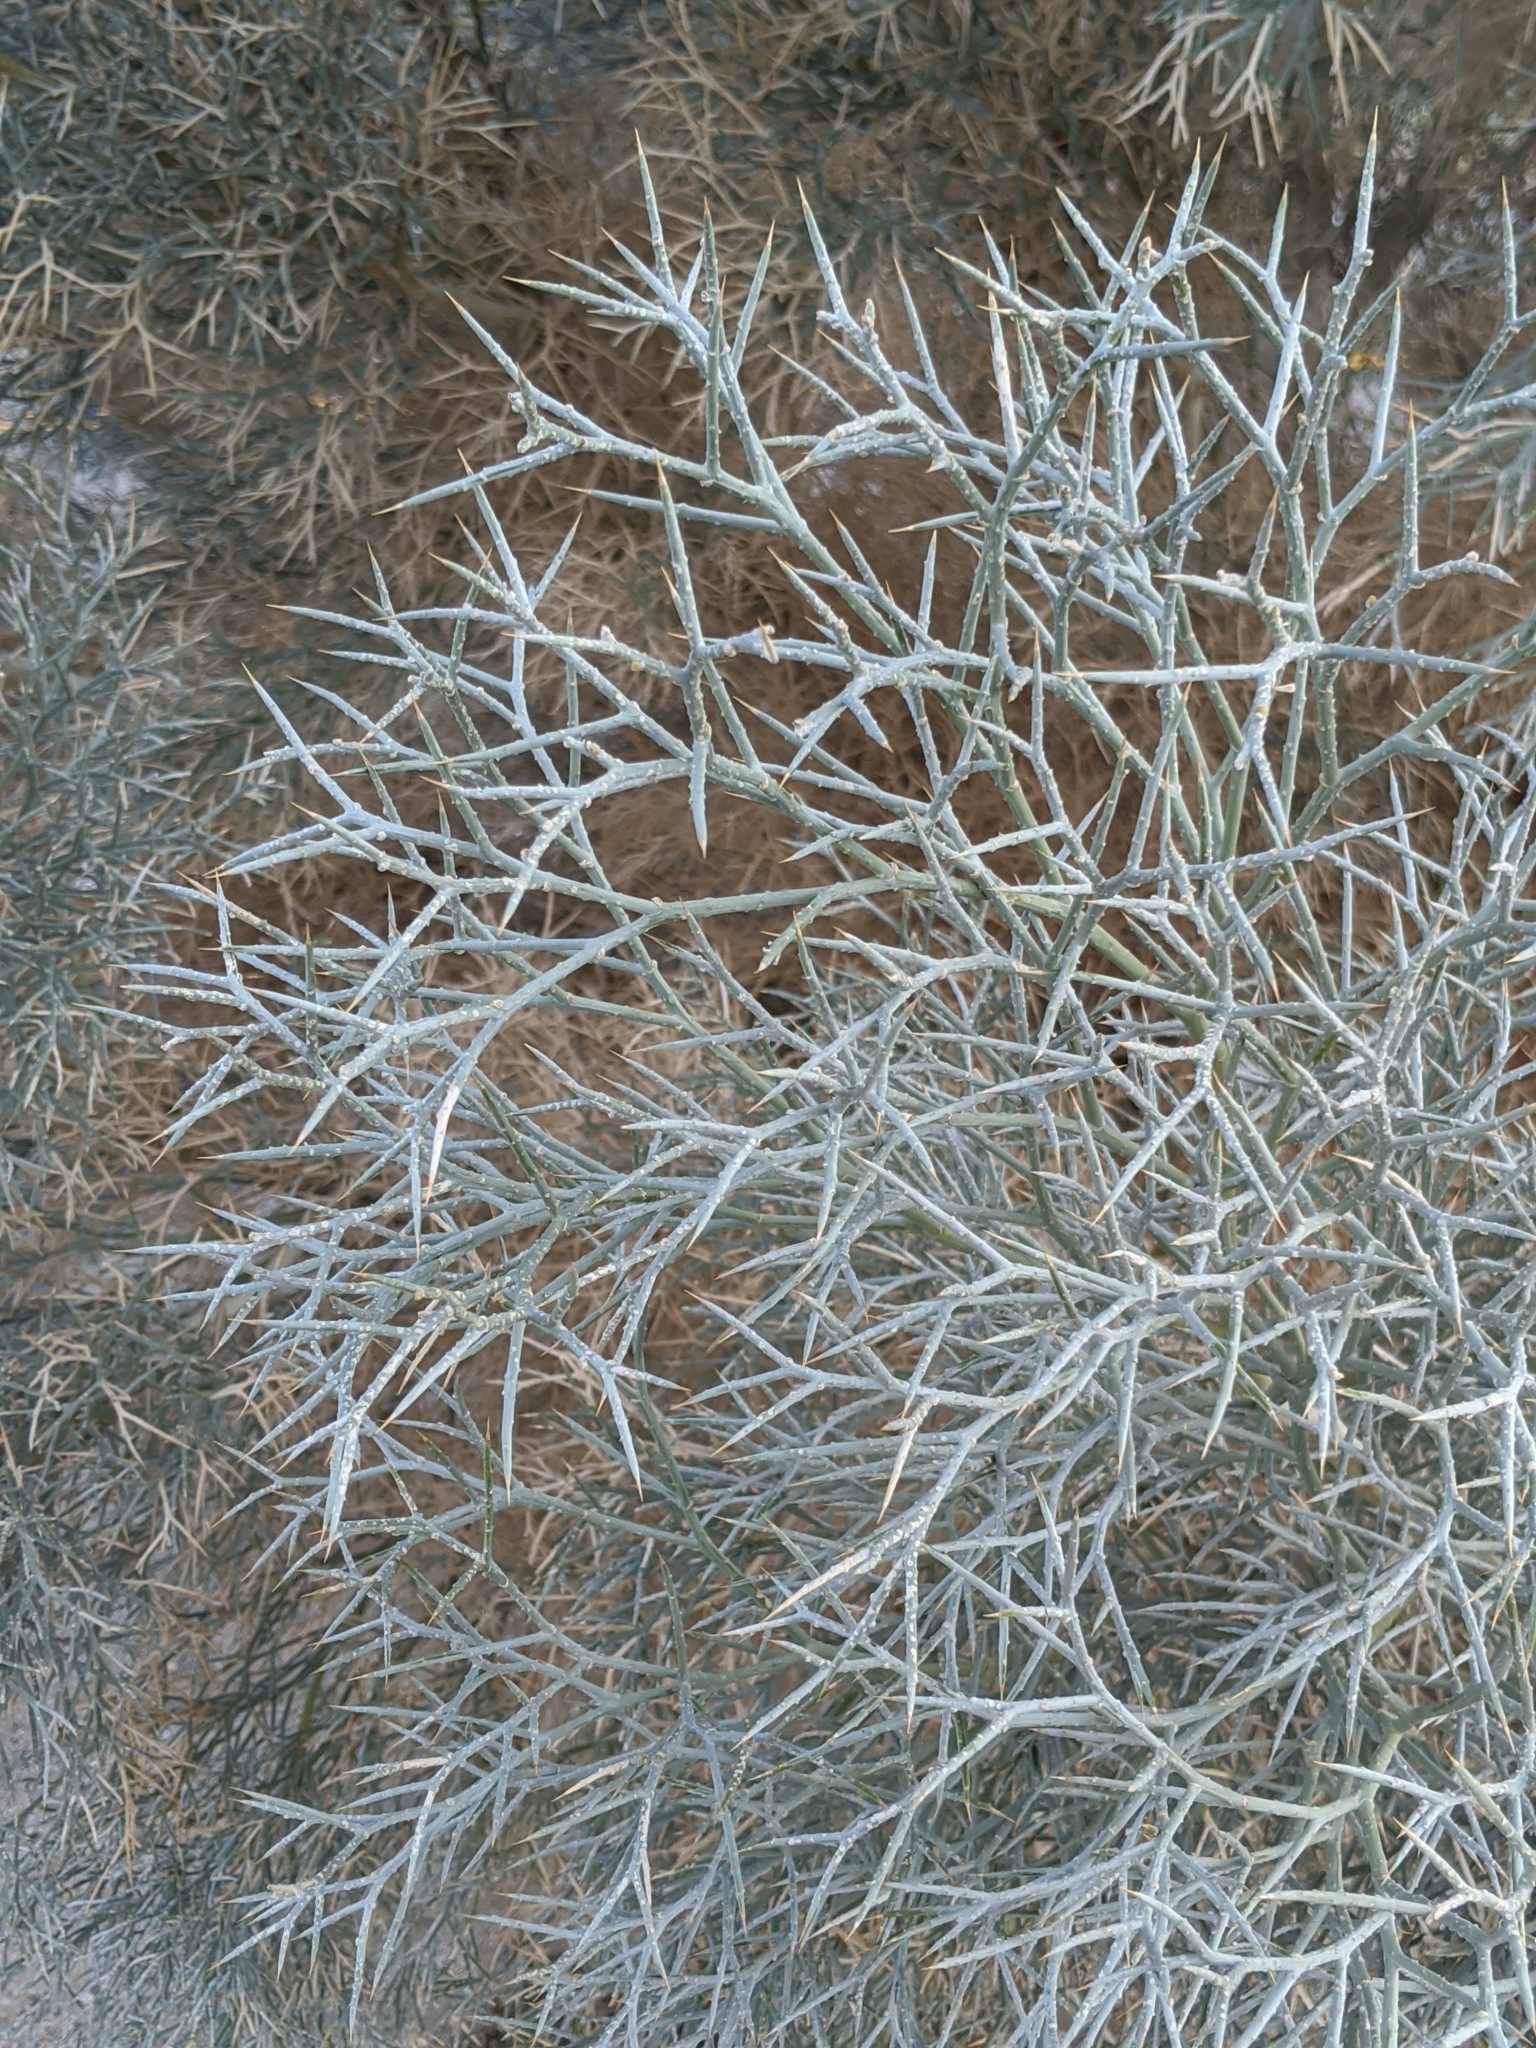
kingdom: Plantae
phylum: Tracheophyta
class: Magnoliopsida
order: Fabales
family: Fabaceae
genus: Psorothamnus
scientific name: Psorothamnus spinosus
